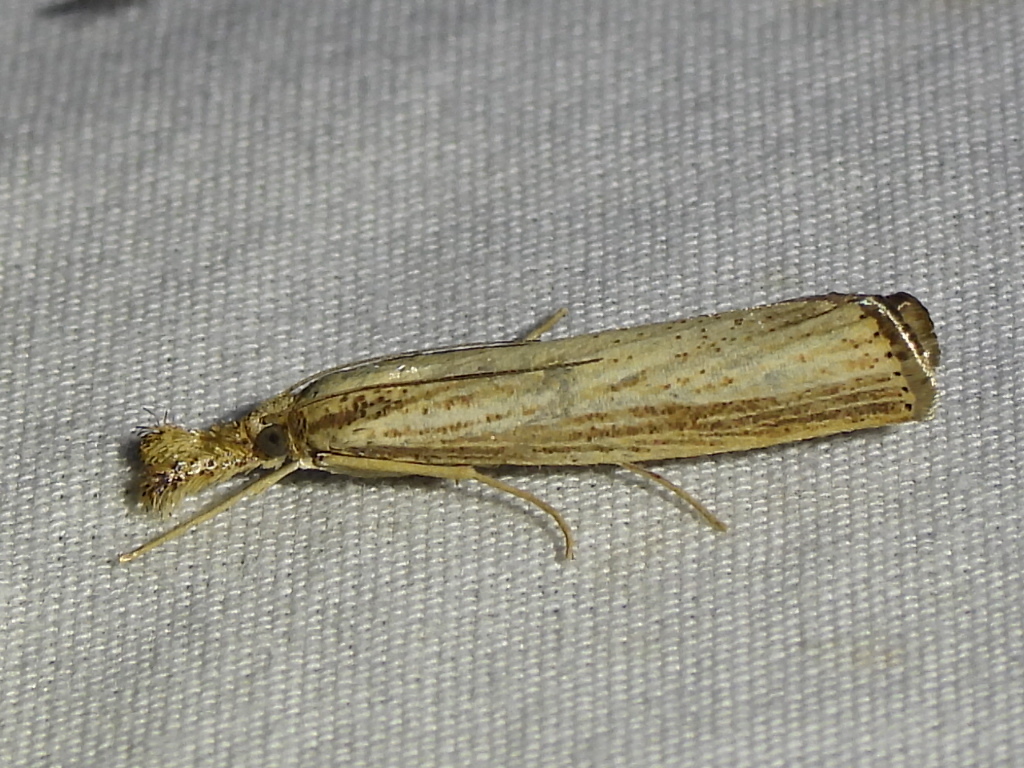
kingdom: Animalia
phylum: Arthropoda
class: Insecta
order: Lepidoptera
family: Crambidae
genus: Agriphila
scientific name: Agriphila vulgivagellus
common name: Vagabond crambus moth
